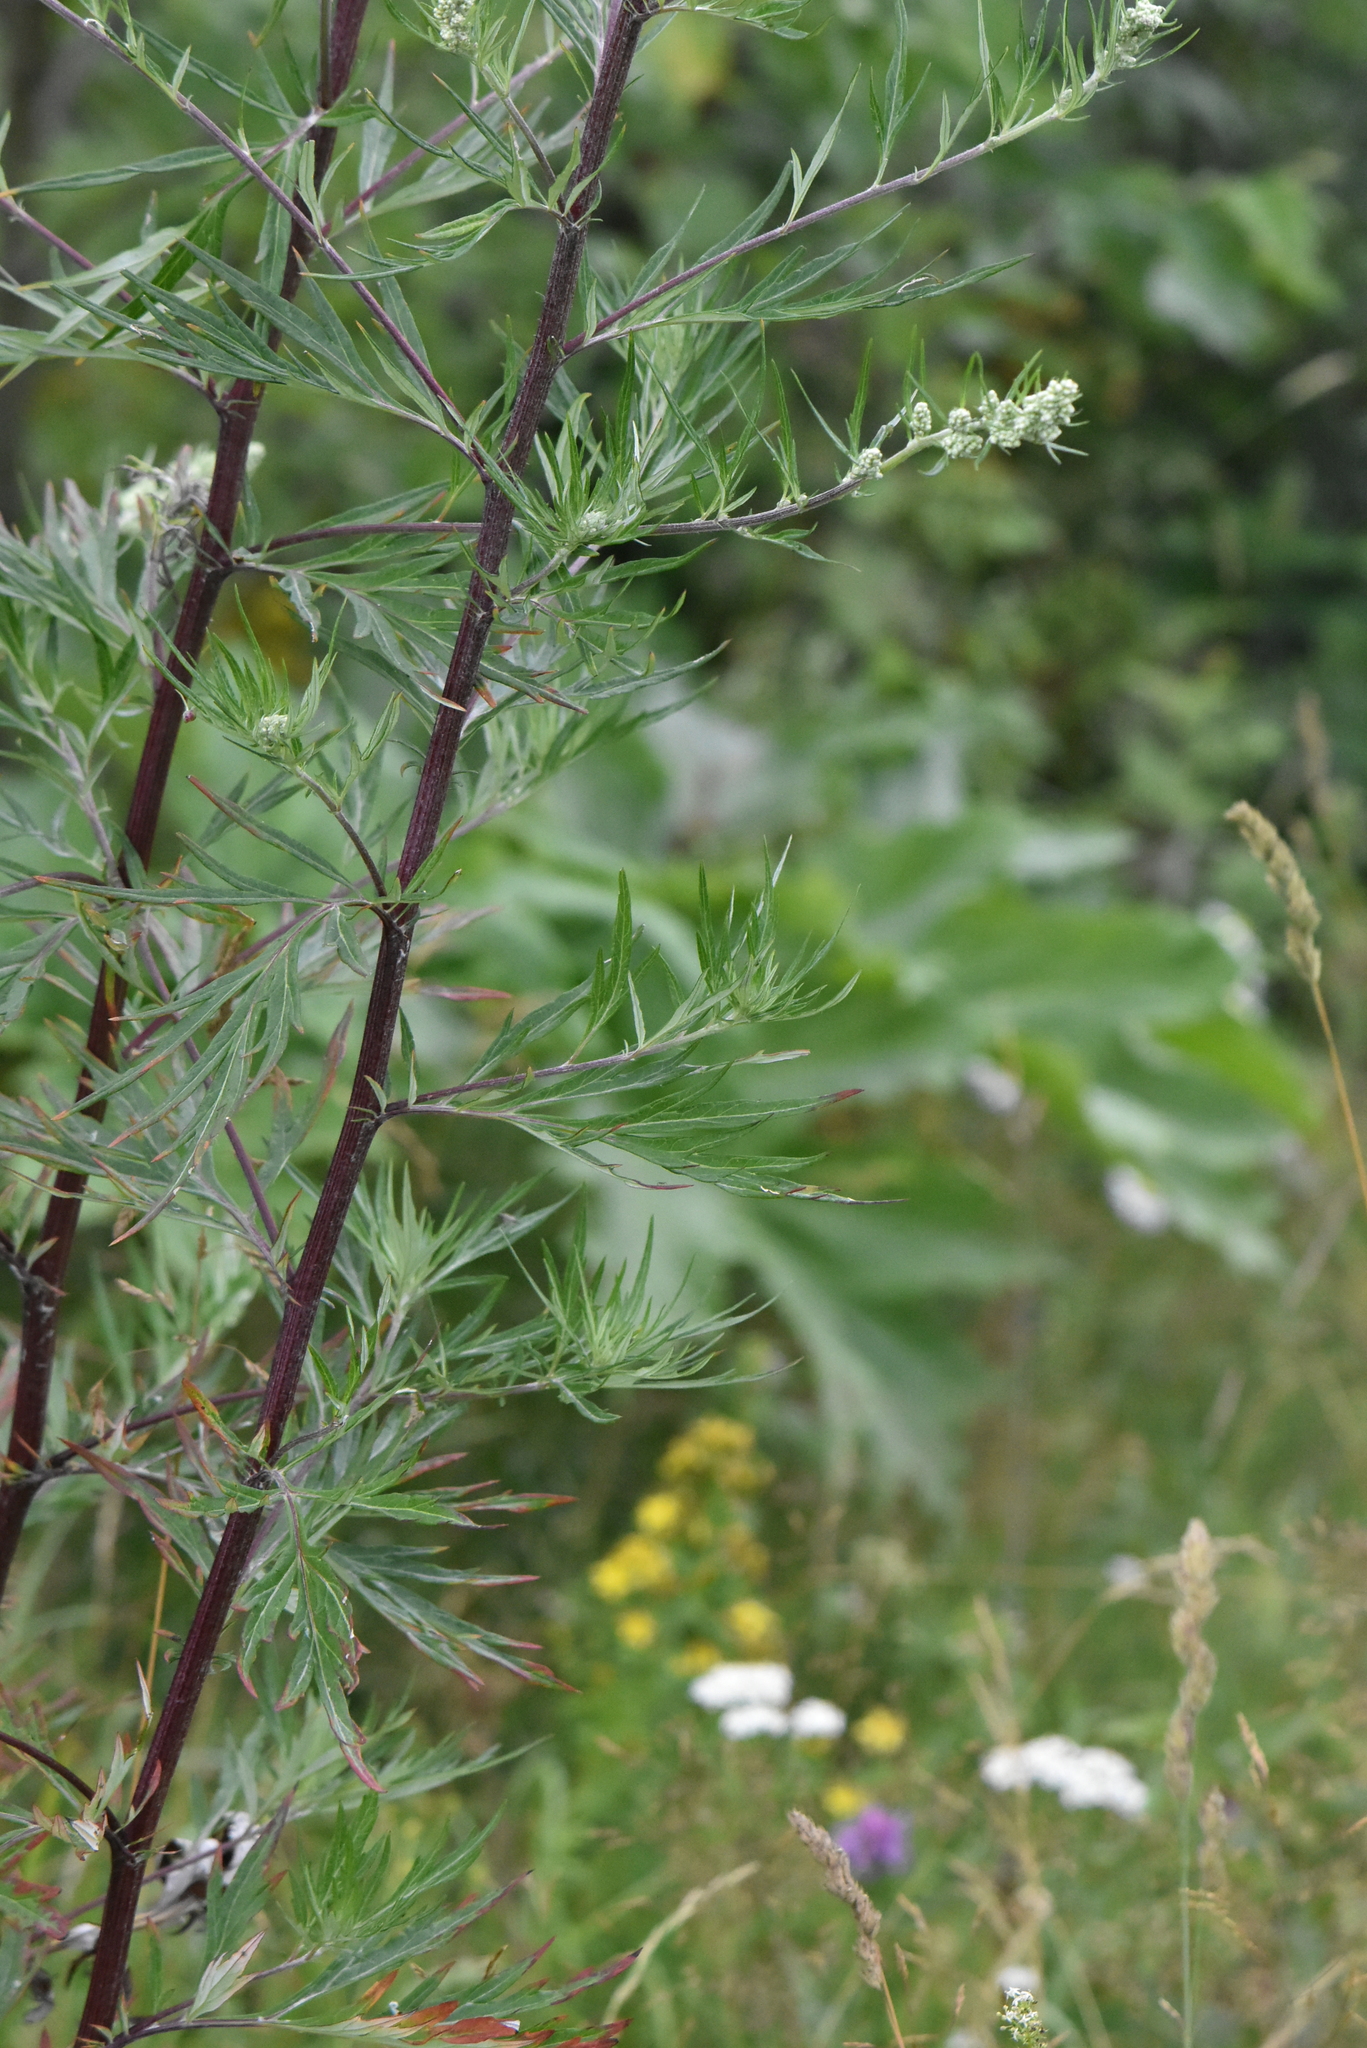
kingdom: Plantae
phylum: Tracheophyta
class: Magnoliopsida
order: Asterales
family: Asteraceae
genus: Artemisia
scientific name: Artemisia vulgaris
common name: Mugwort
